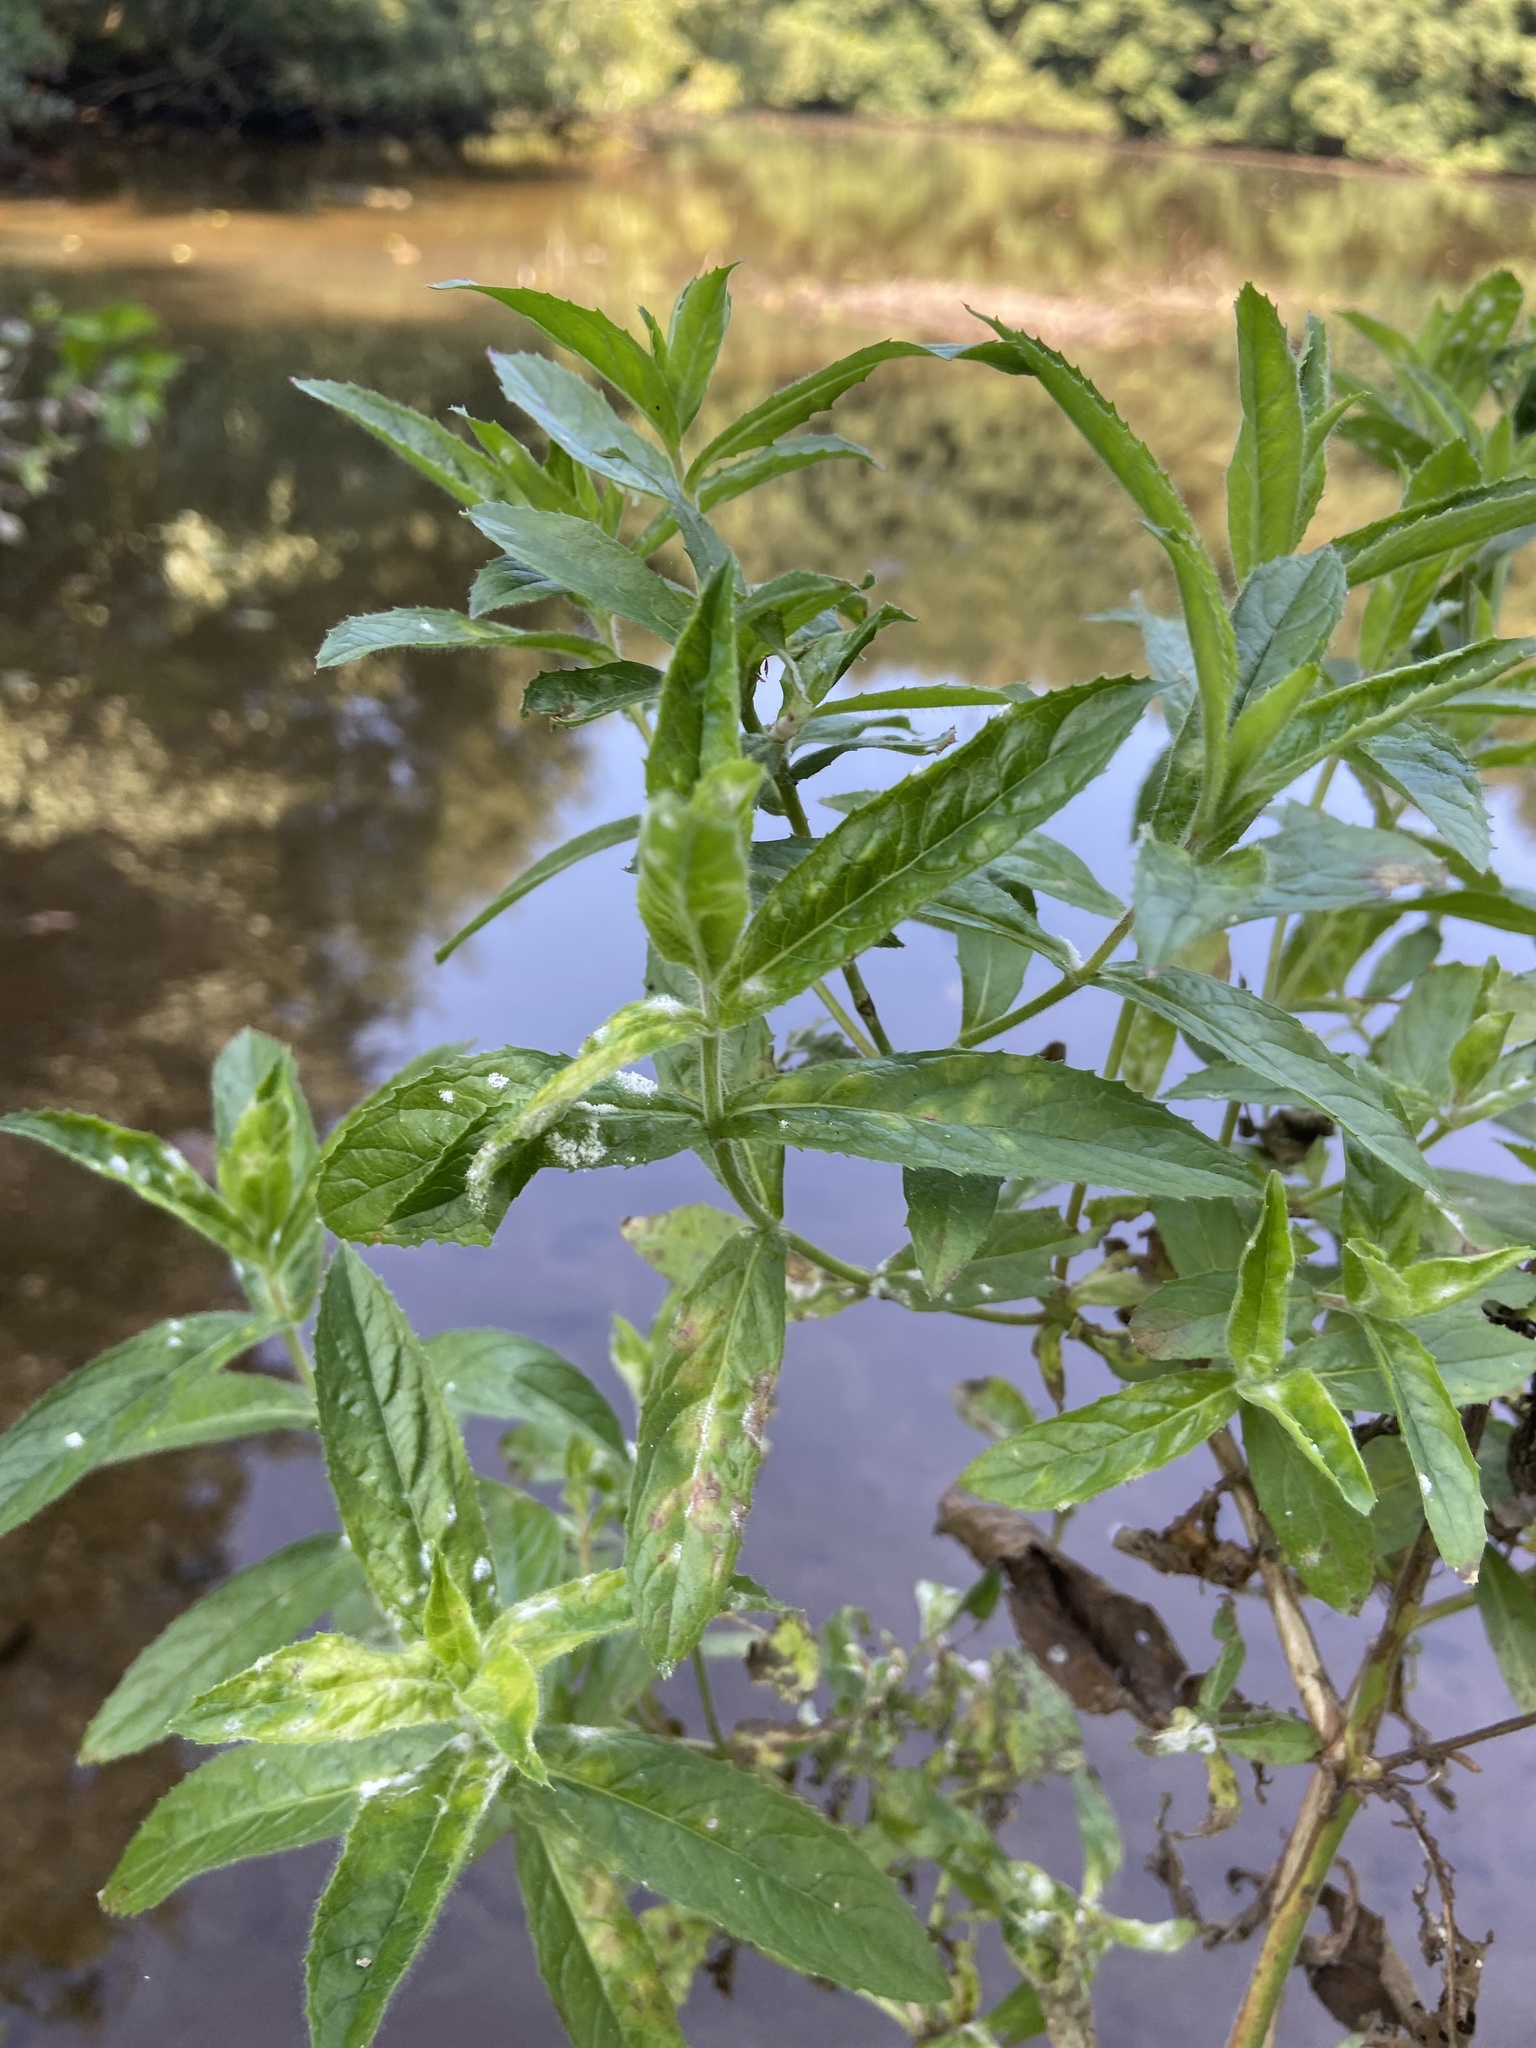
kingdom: Plantae
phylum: Tracheophyta
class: Magnoliopsida
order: Myrtales
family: Onagraceae
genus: Epilobium
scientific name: Epilobium hirsutum
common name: Great willowherb
